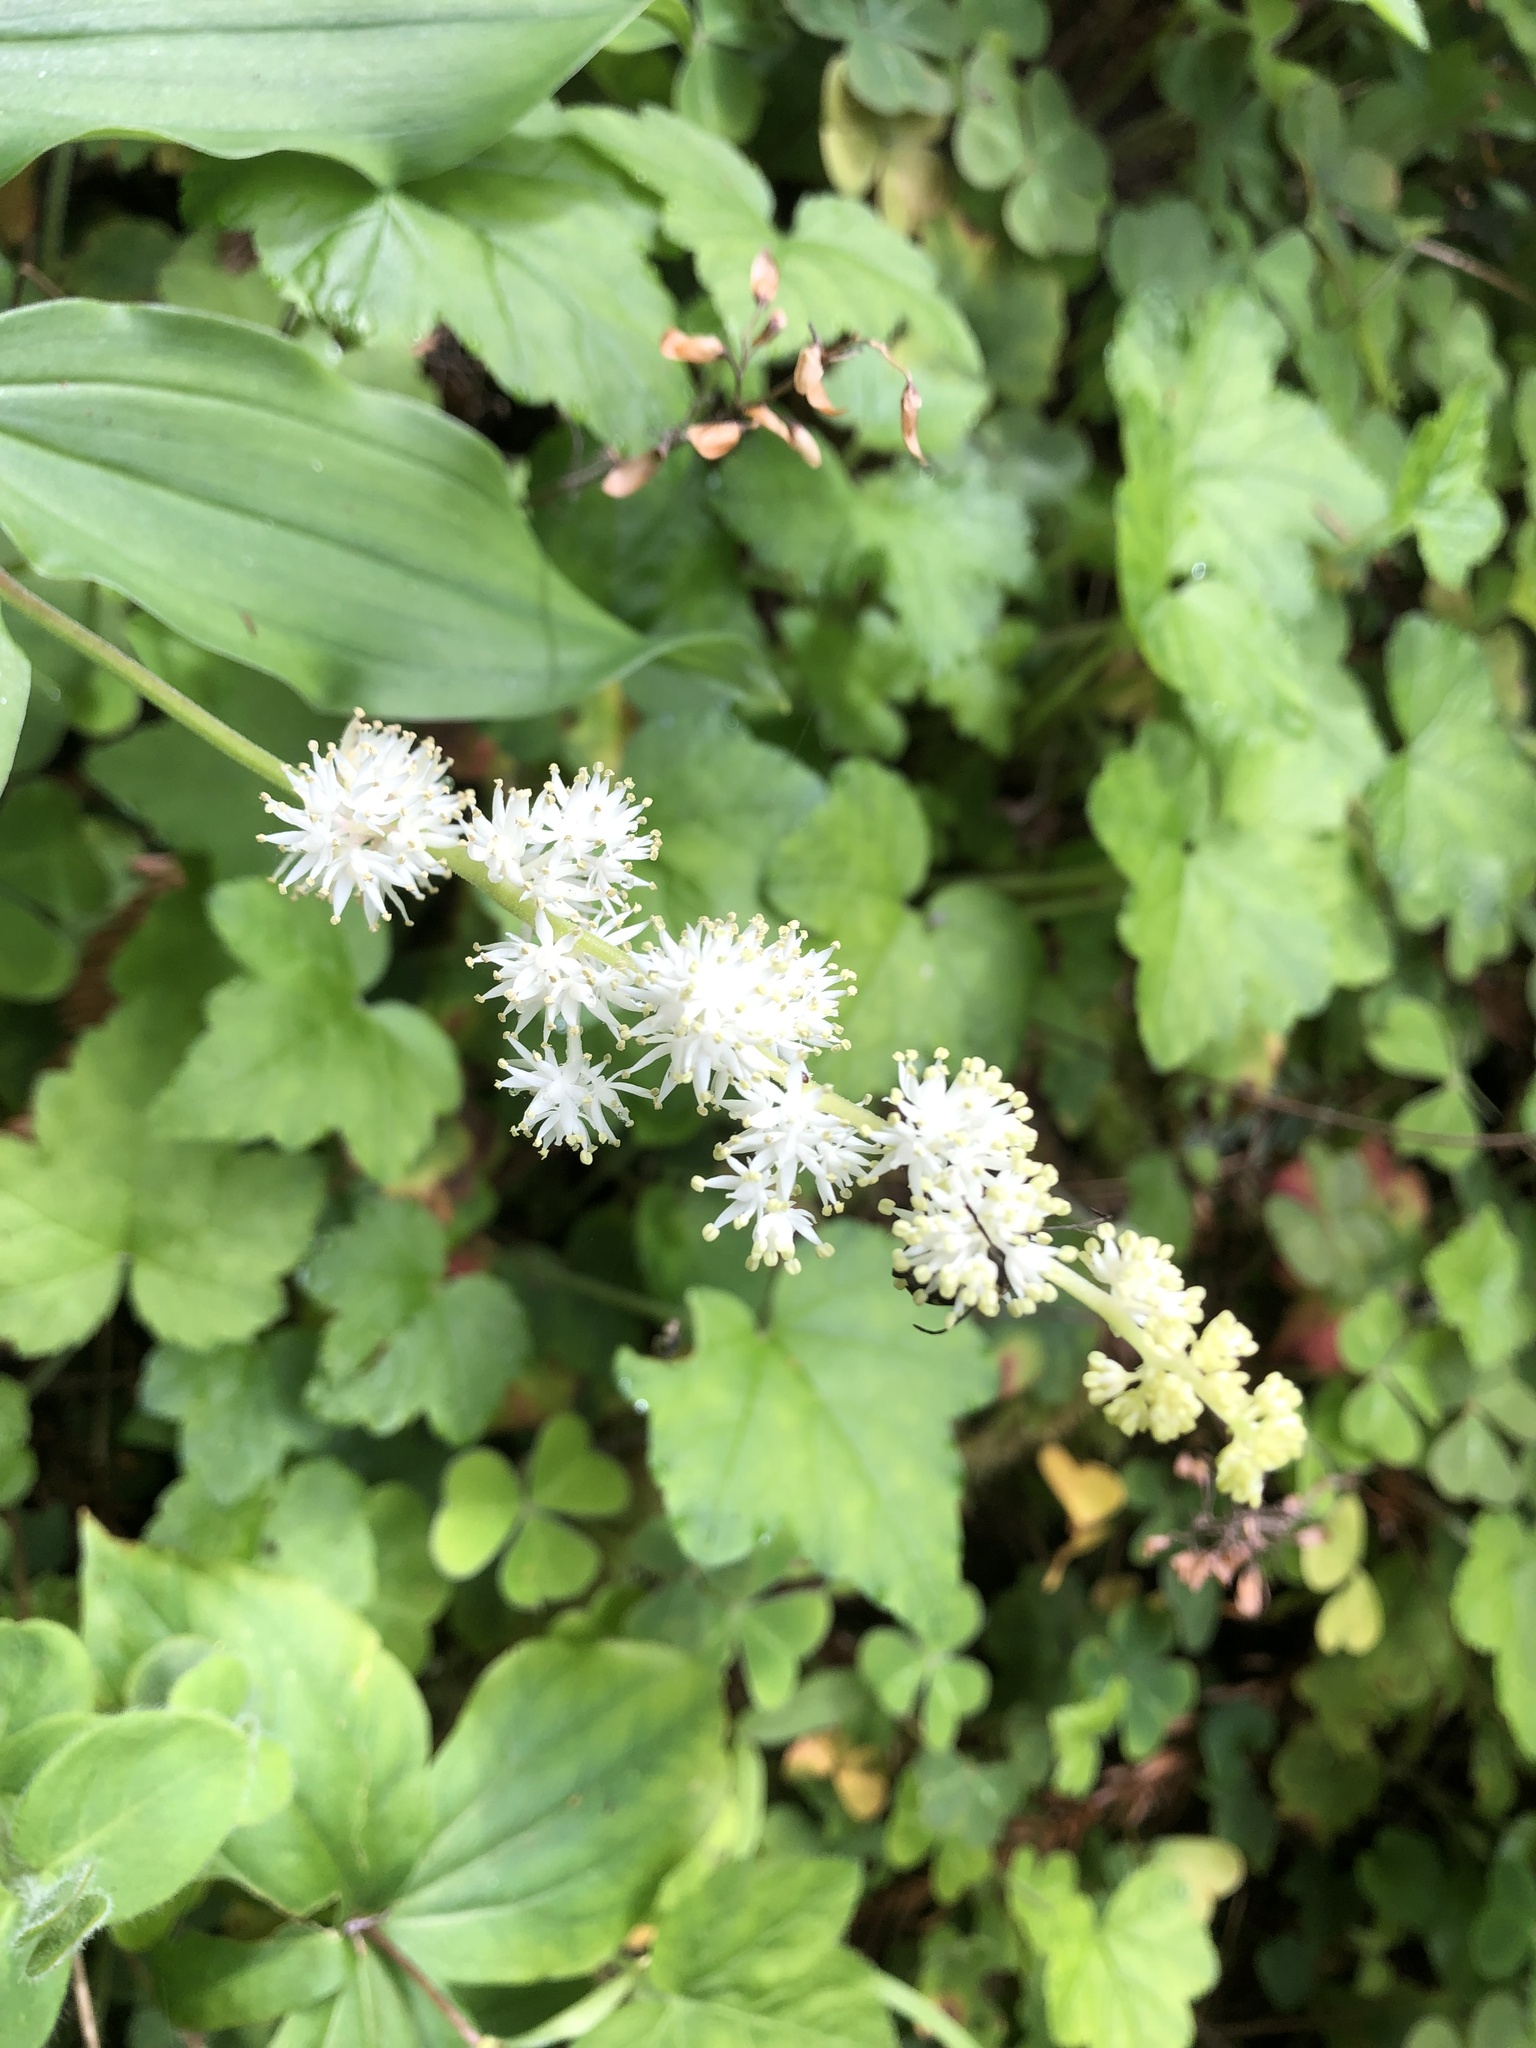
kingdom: Plantae
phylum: Tracheophyta
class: Liliopsida
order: Asparagales
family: Asparagaceae
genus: Maianthemum
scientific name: Maianthemum racemosum
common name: False spikenard
